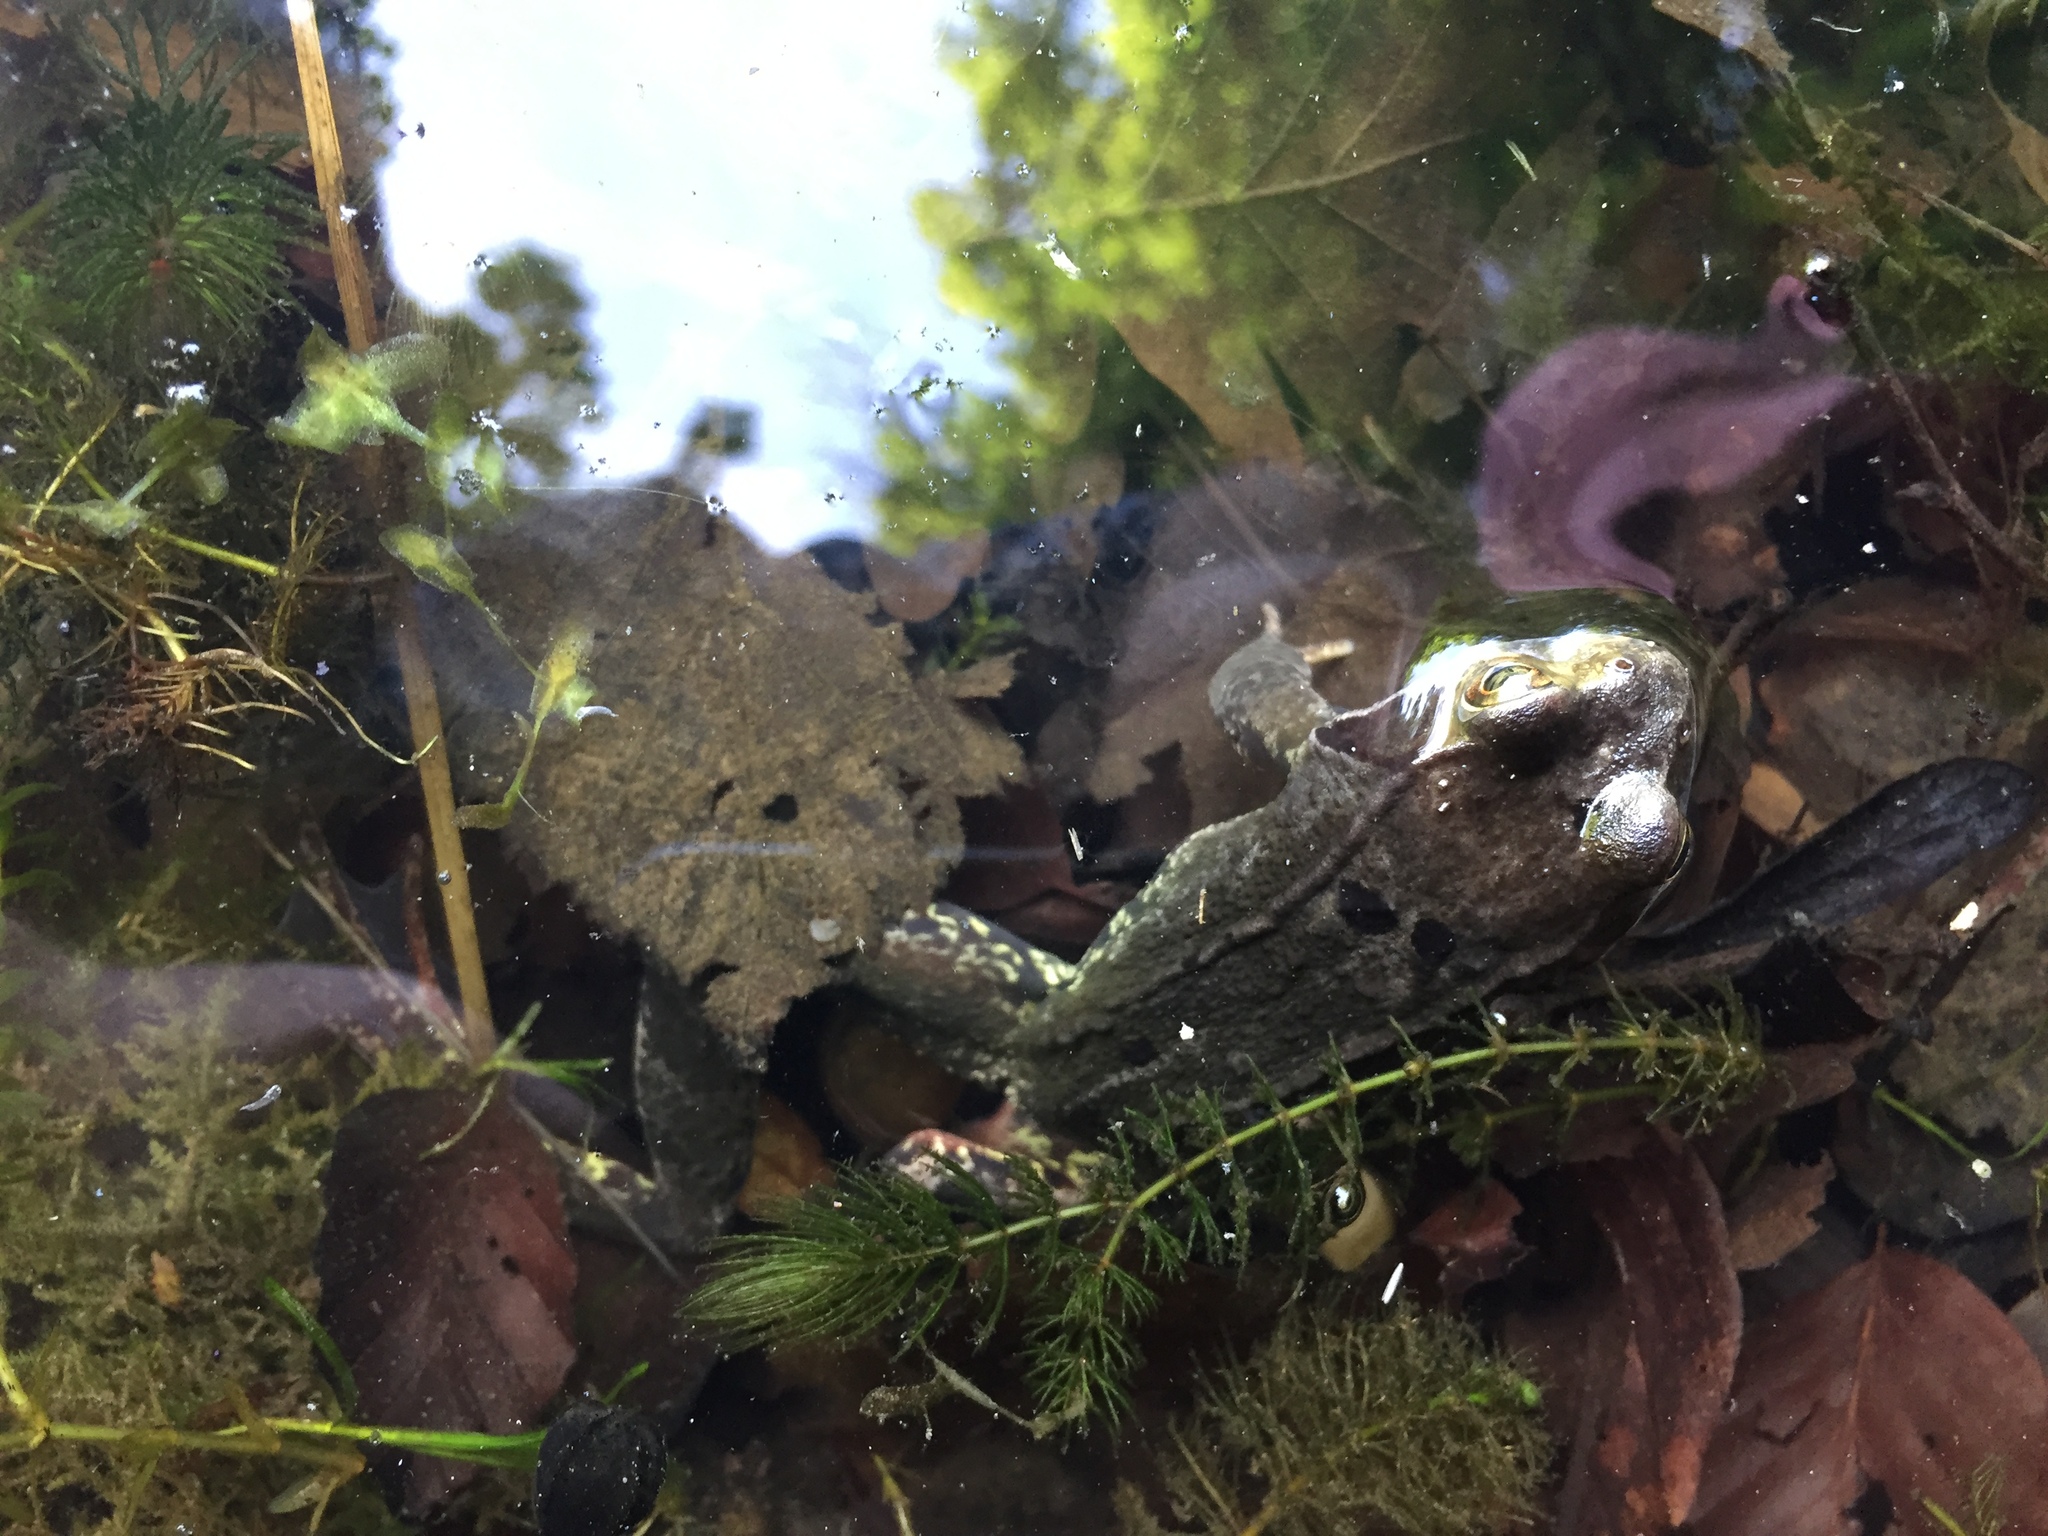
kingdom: Animalia
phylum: Chordata
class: Amphibia
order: Anura
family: Ranidae
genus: Rana
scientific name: Rana temporaria
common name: Common frog
